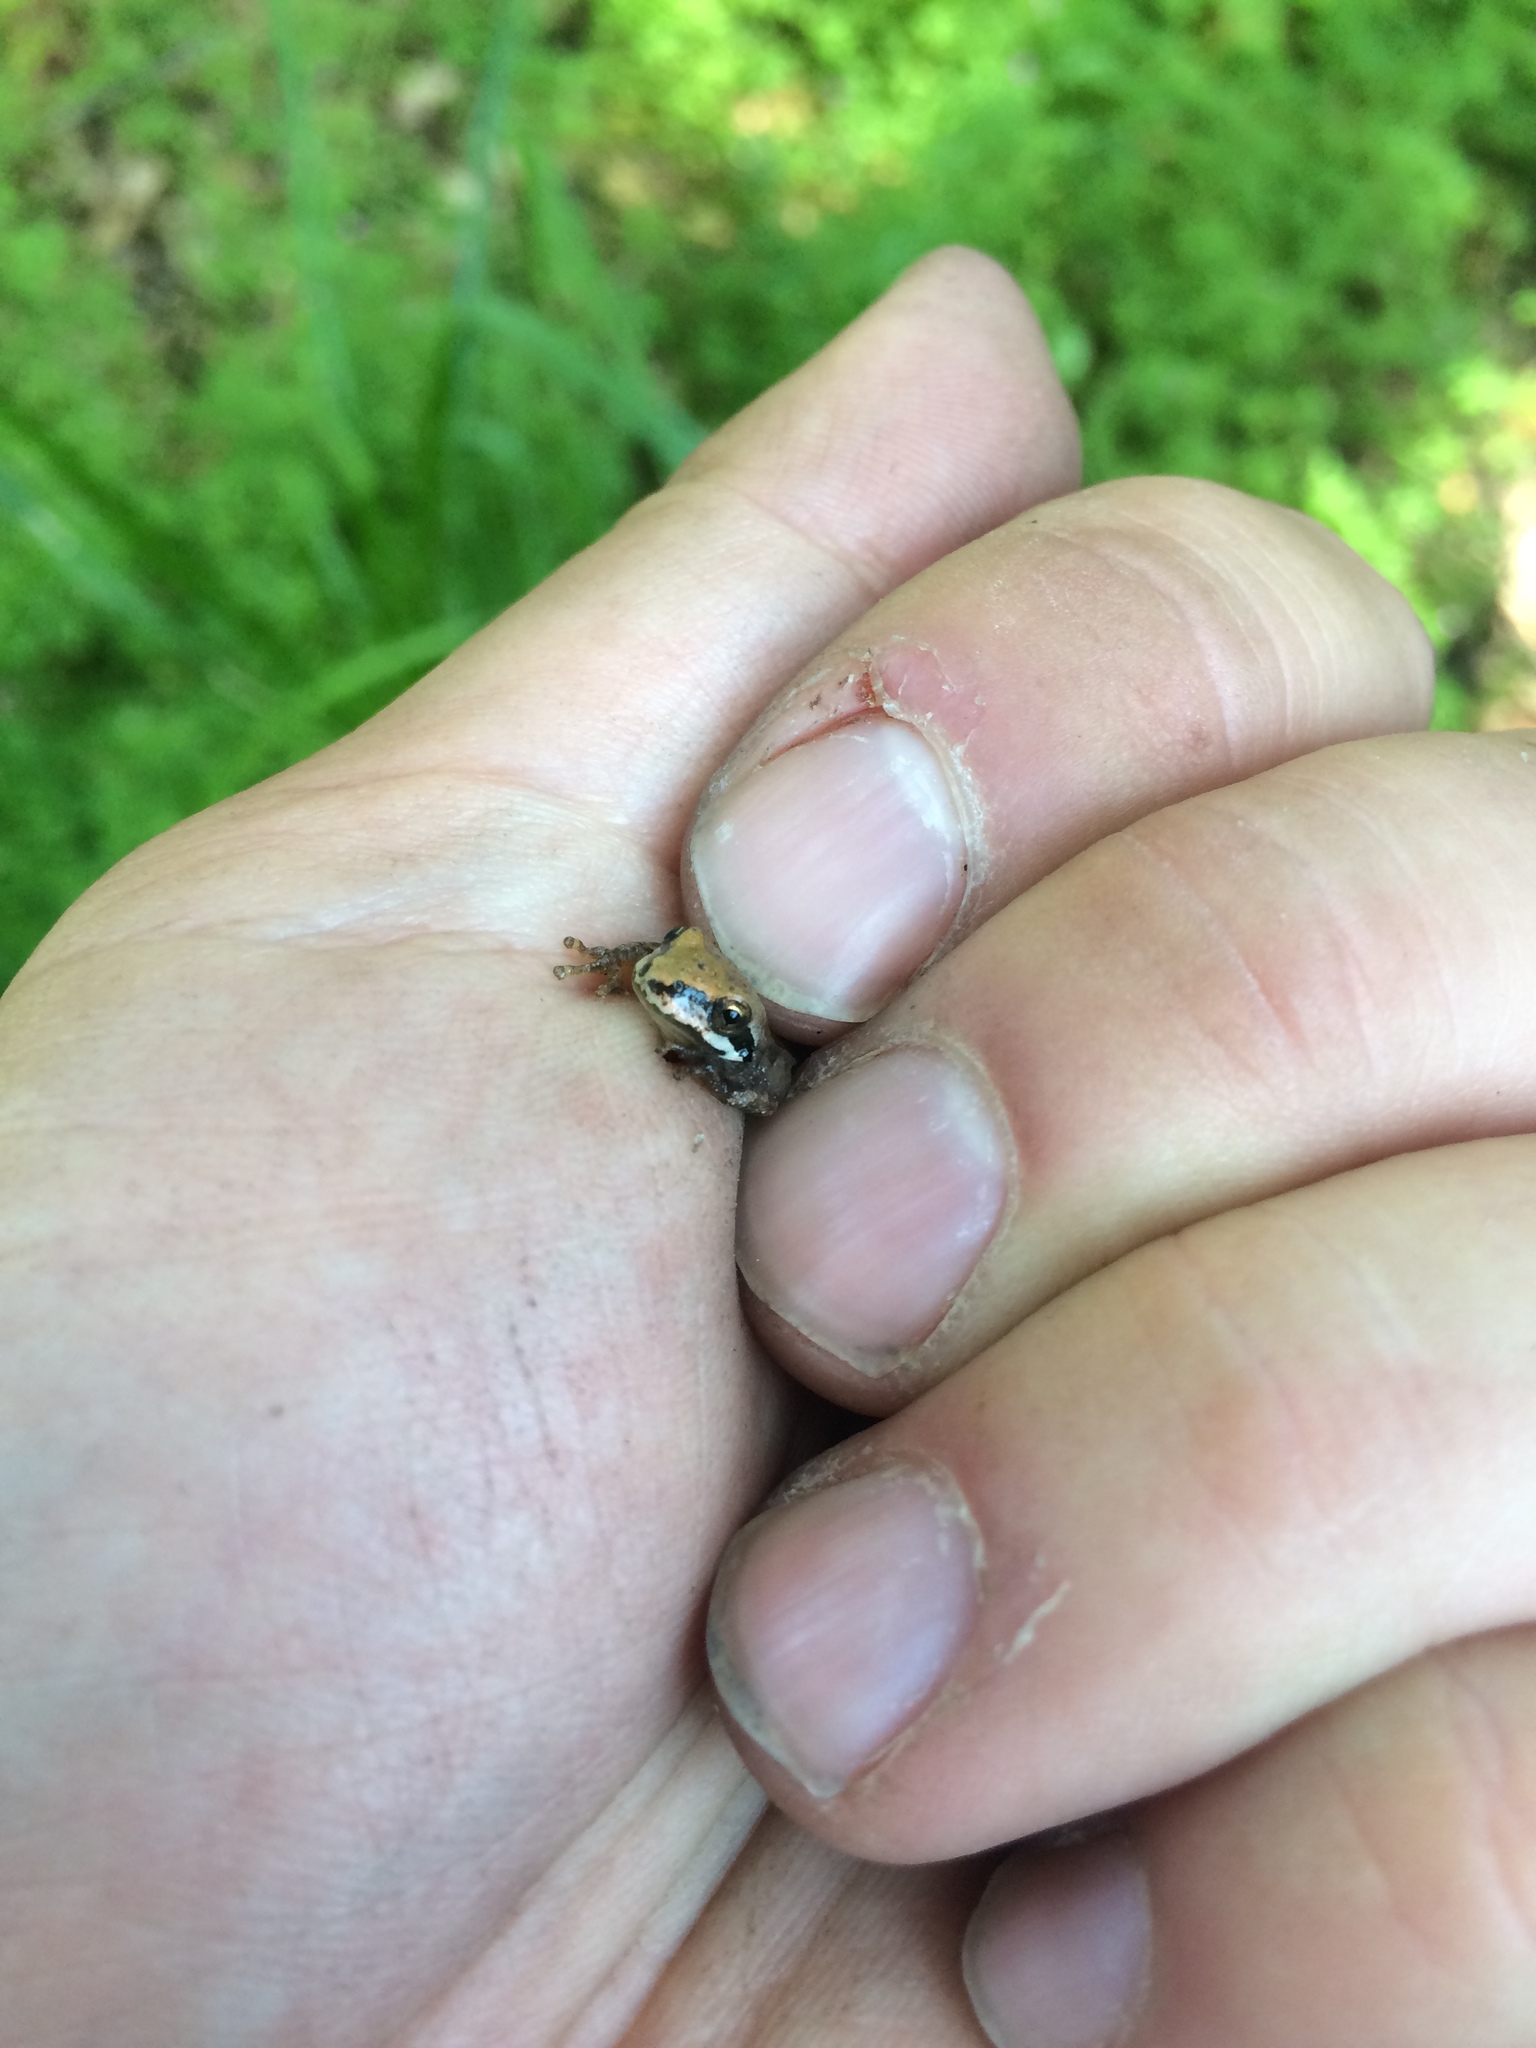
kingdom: Animalia
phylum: Chordata
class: Amphibia
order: Anura
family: Hylidae
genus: Pseudacris
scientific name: Pseudacris regilla
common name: Pacific chorus frog
